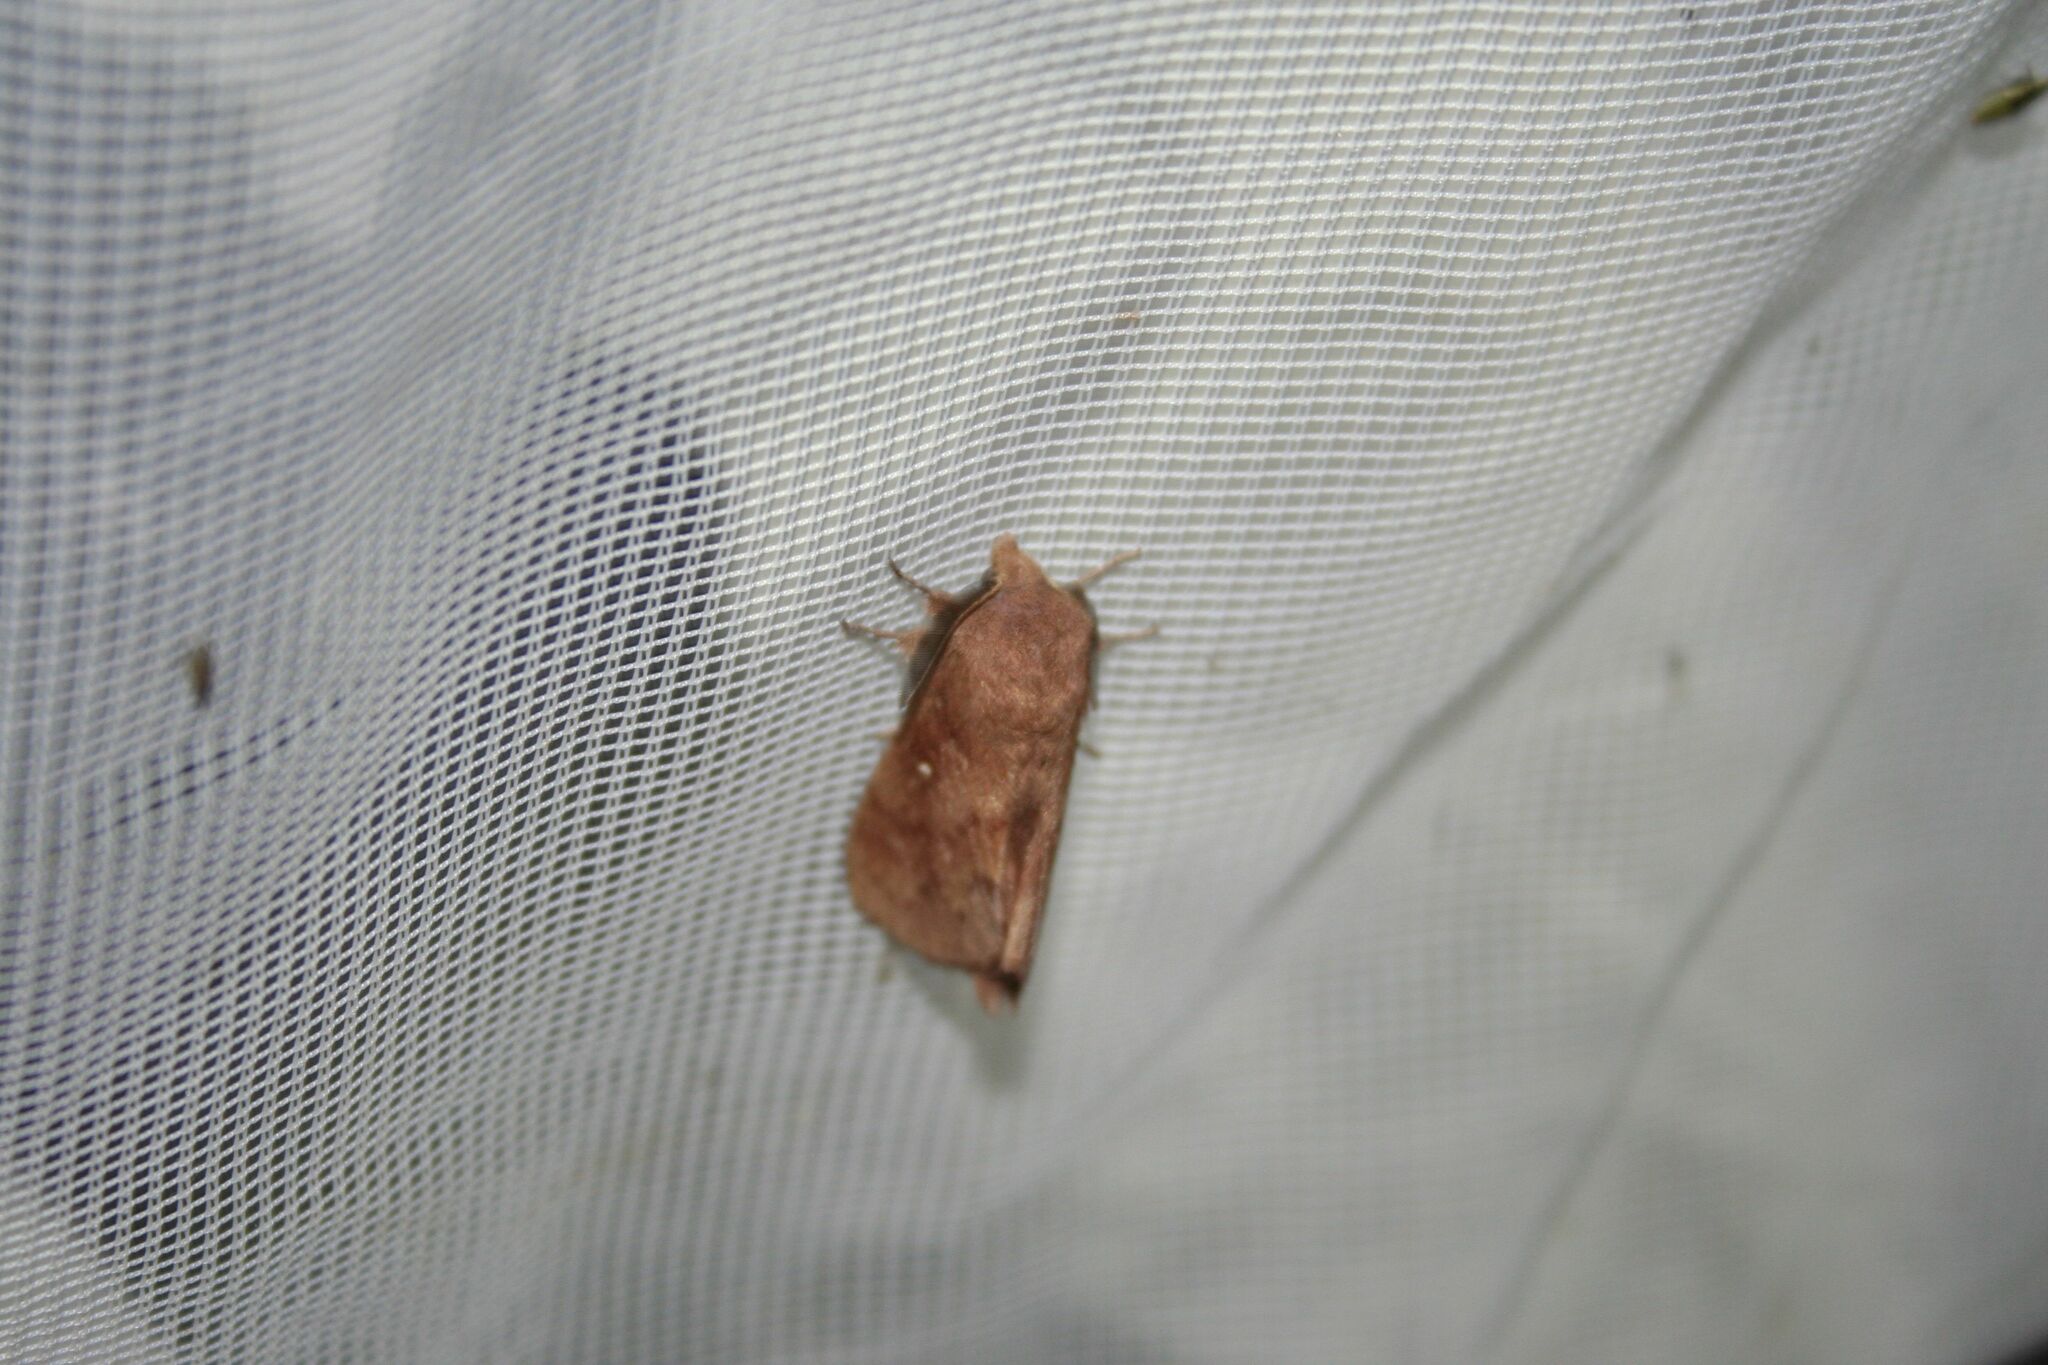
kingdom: Animalia
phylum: Arthropoda
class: Insecta
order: Lepidoptera
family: Lasiocampidae
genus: Dendrolimus
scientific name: Dendrolimus pini
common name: Pine-tree lappet
